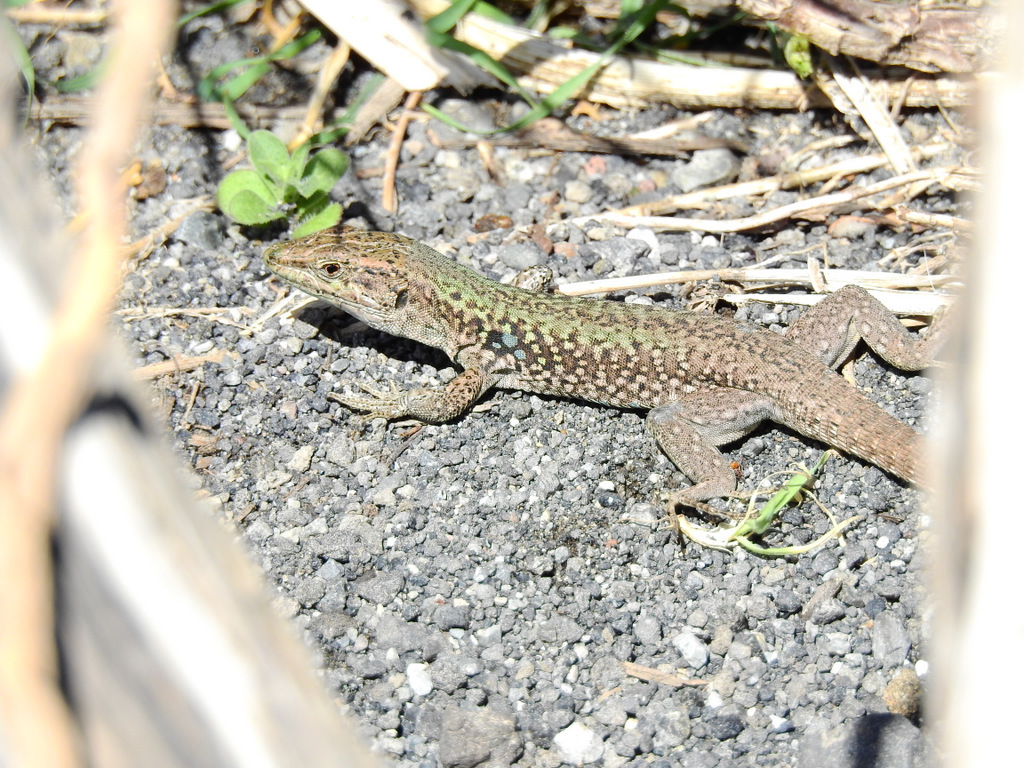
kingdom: Animalia
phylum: Chordata
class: Squamata
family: Lacertidae
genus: Podarcis
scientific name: Podarcis siculus
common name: Italian wall lizard
